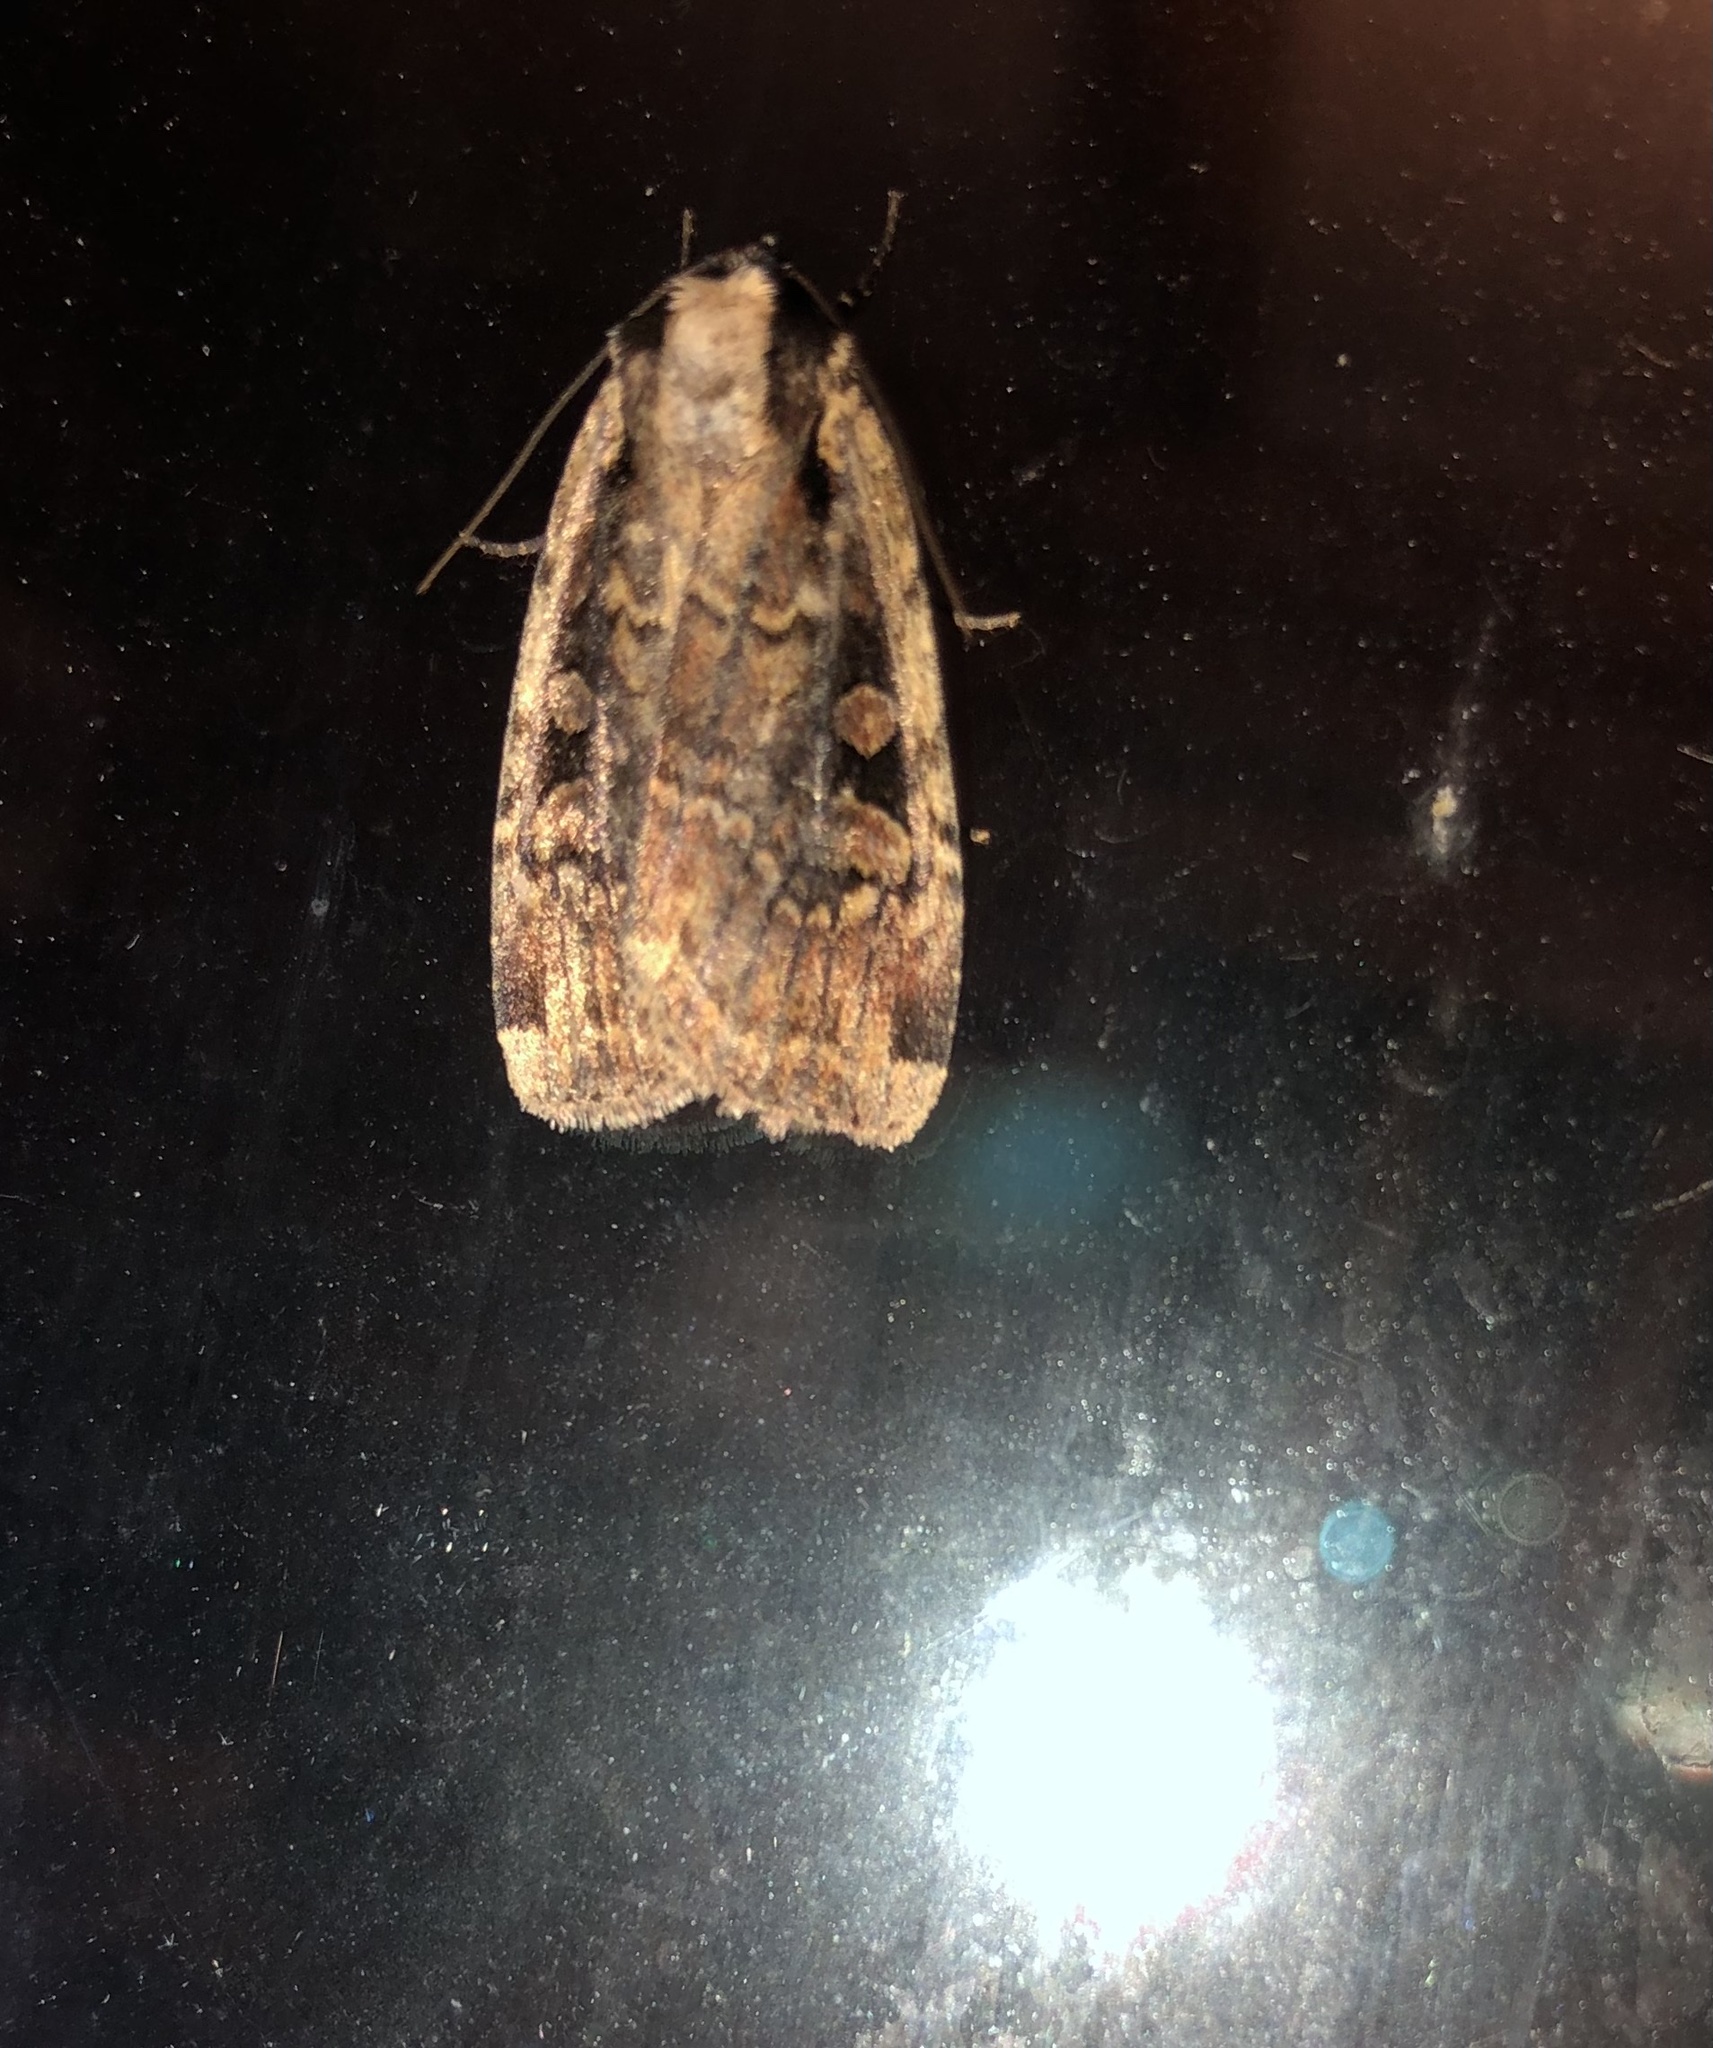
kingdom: Animalia
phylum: Arthropoda
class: Insecta
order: Lepidoptera
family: Noctuidae
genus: Eueretagrotis
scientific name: Eueretagrotis sigmoides
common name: Sigmoid dart
